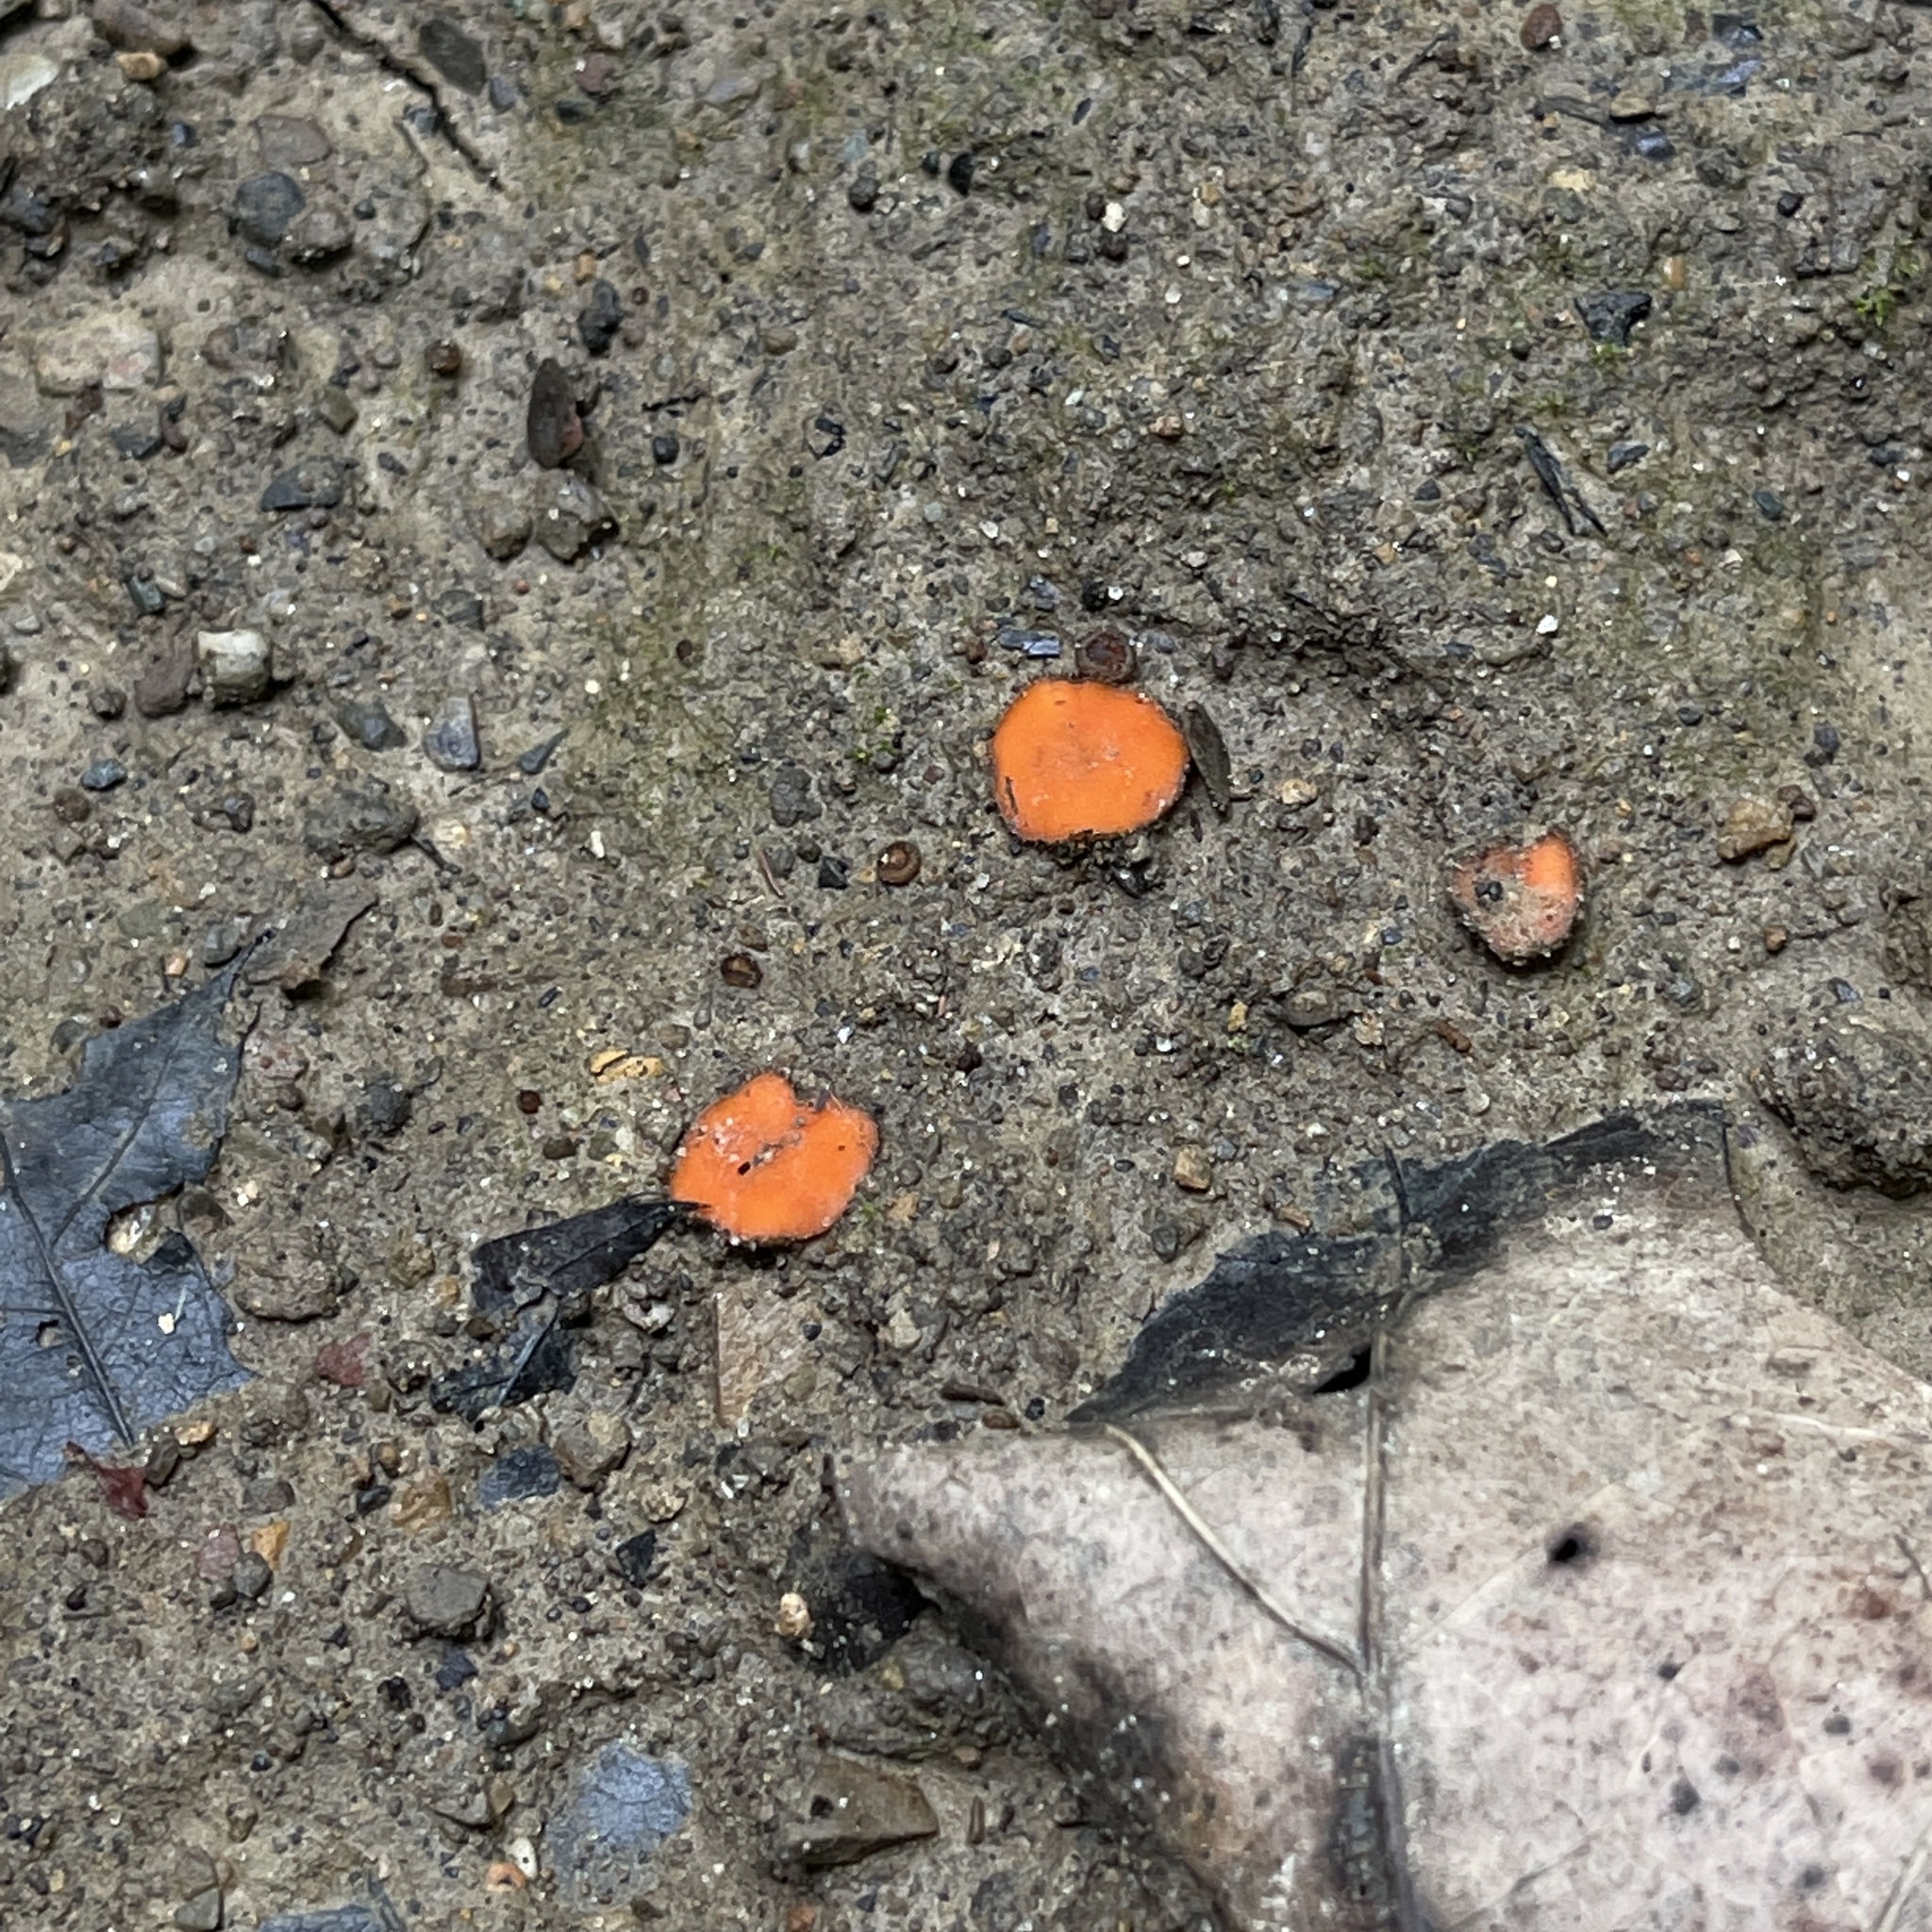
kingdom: Fungi
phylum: Ascomycota
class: Pezizomycetes
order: Pezizales
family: Pyronemataceae
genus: Scutellinia
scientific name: Scutellinia
